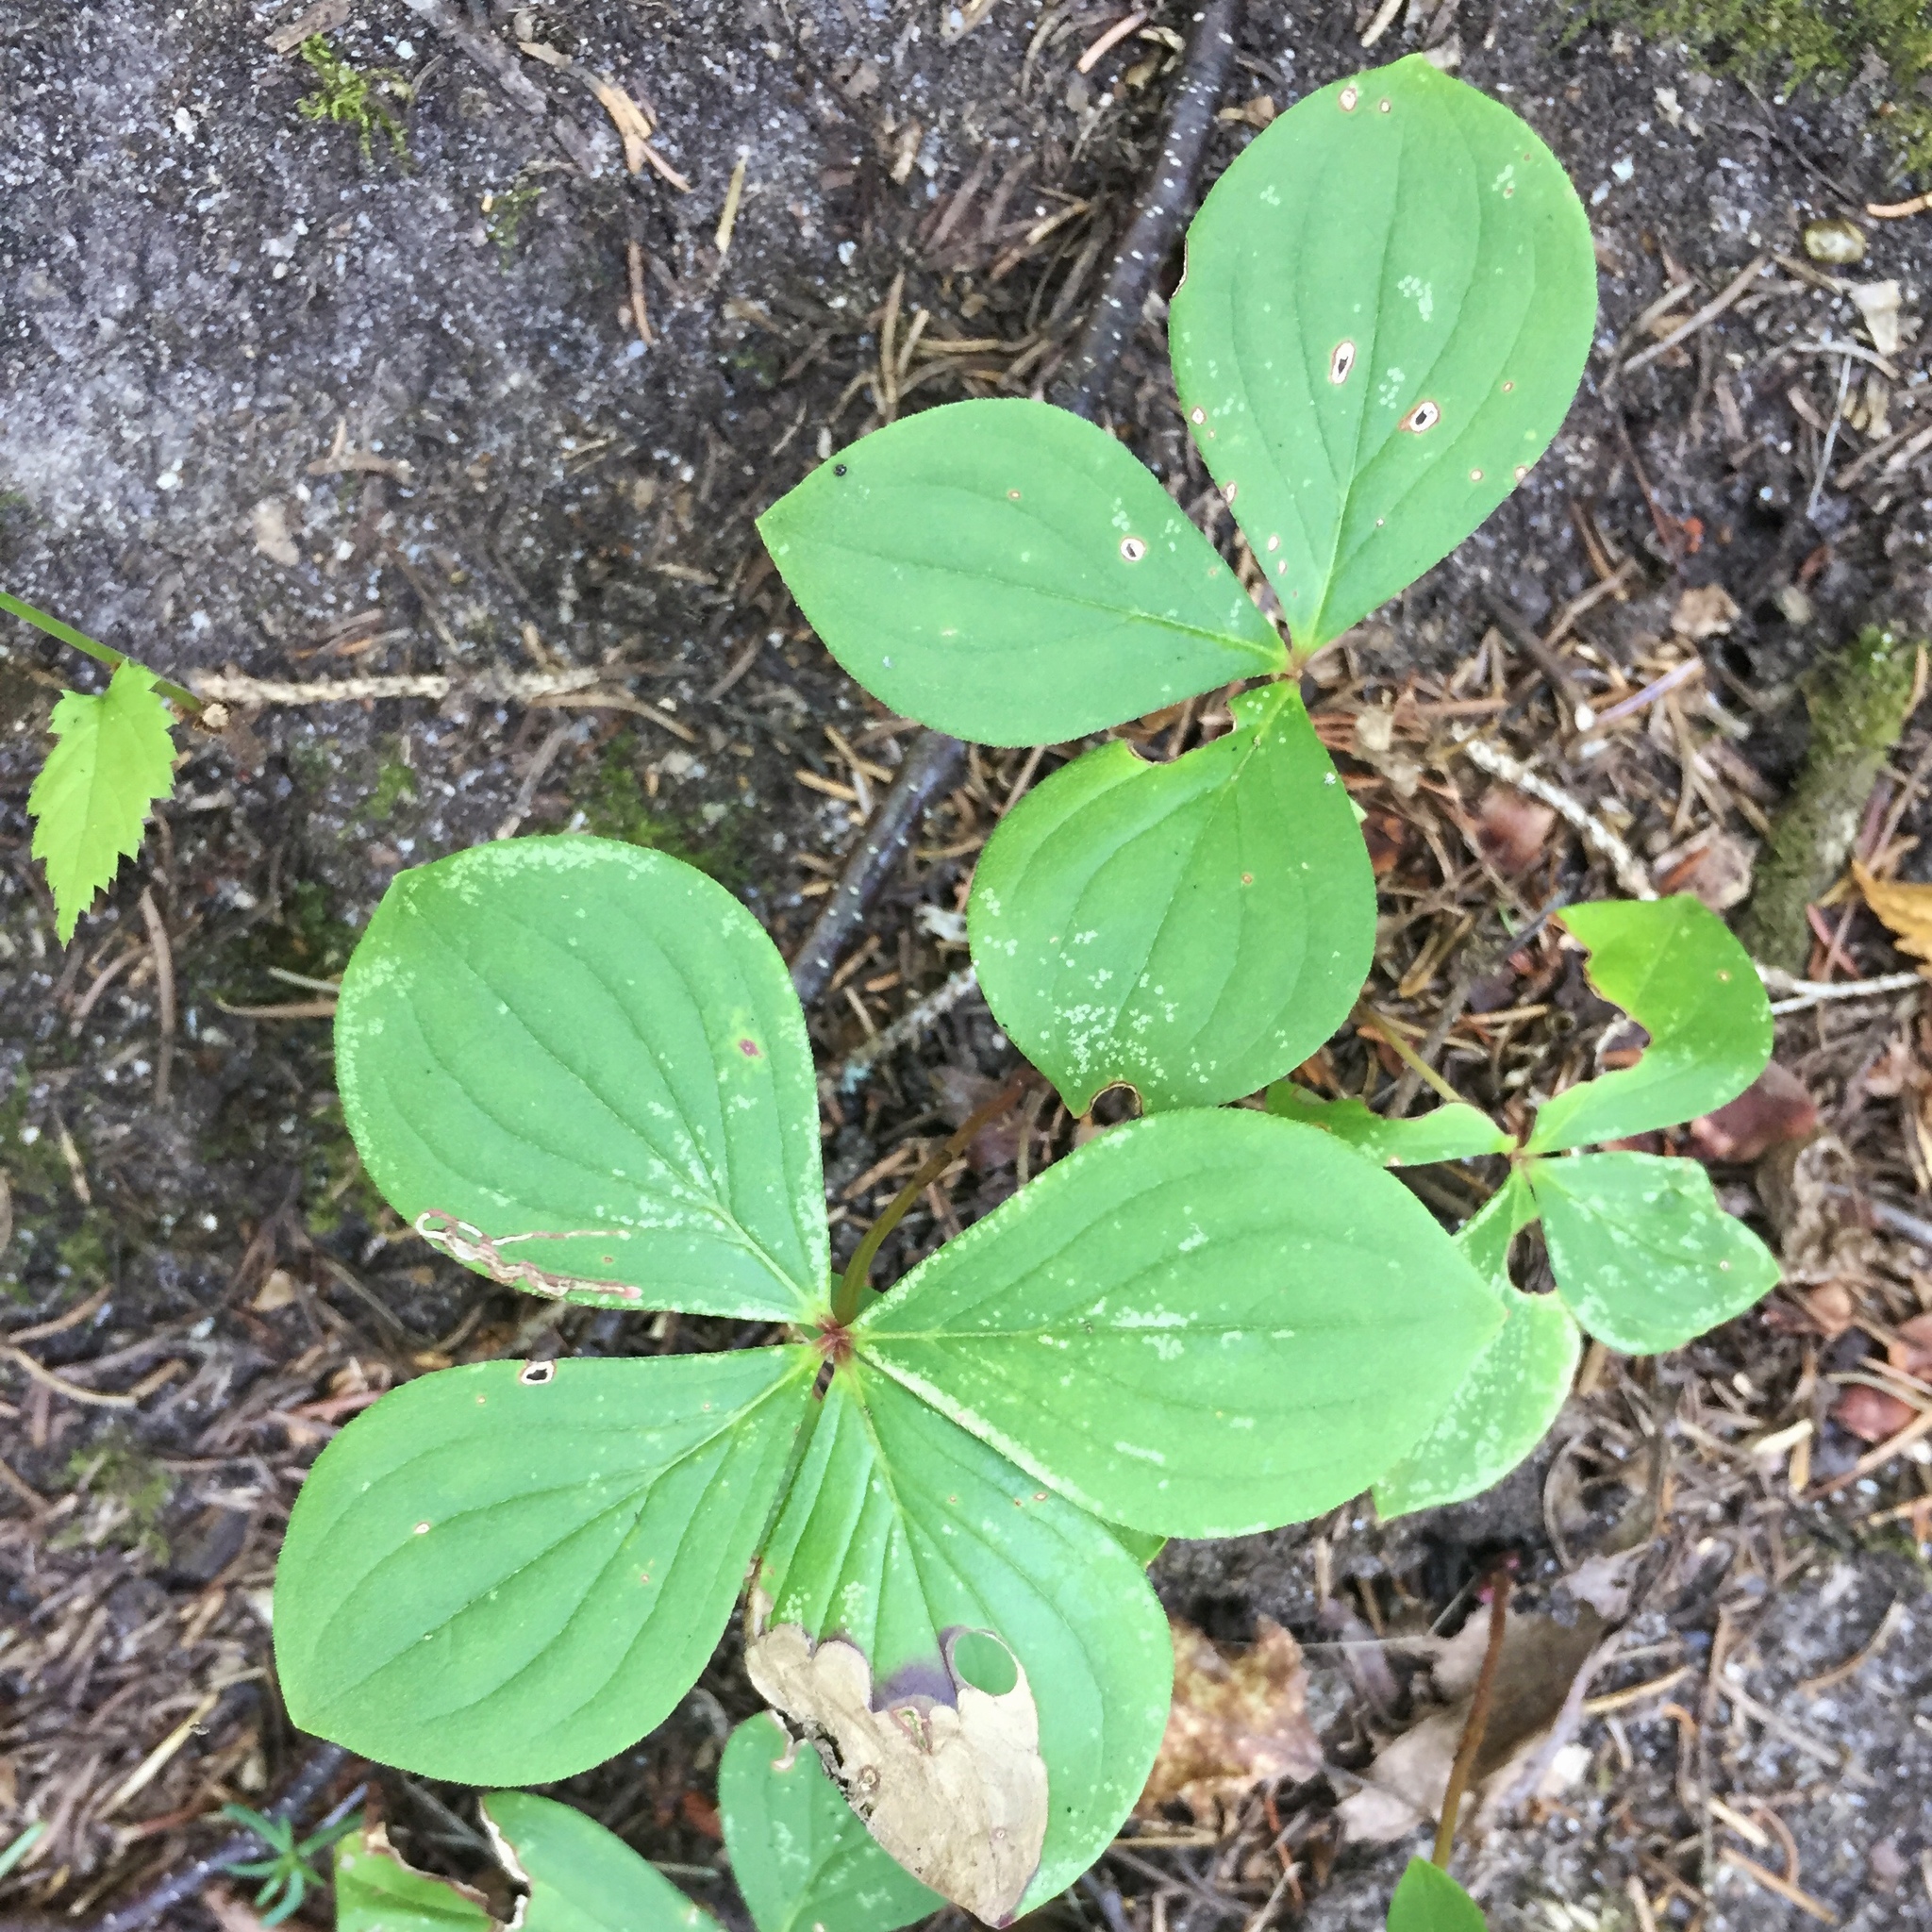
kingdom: Plantae
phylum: Tracheophyta
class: Magnoliopsida
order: Cornales
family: Cornaceae
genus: Cornus
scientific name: Cornus canadensis
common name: Creeping dogwood
